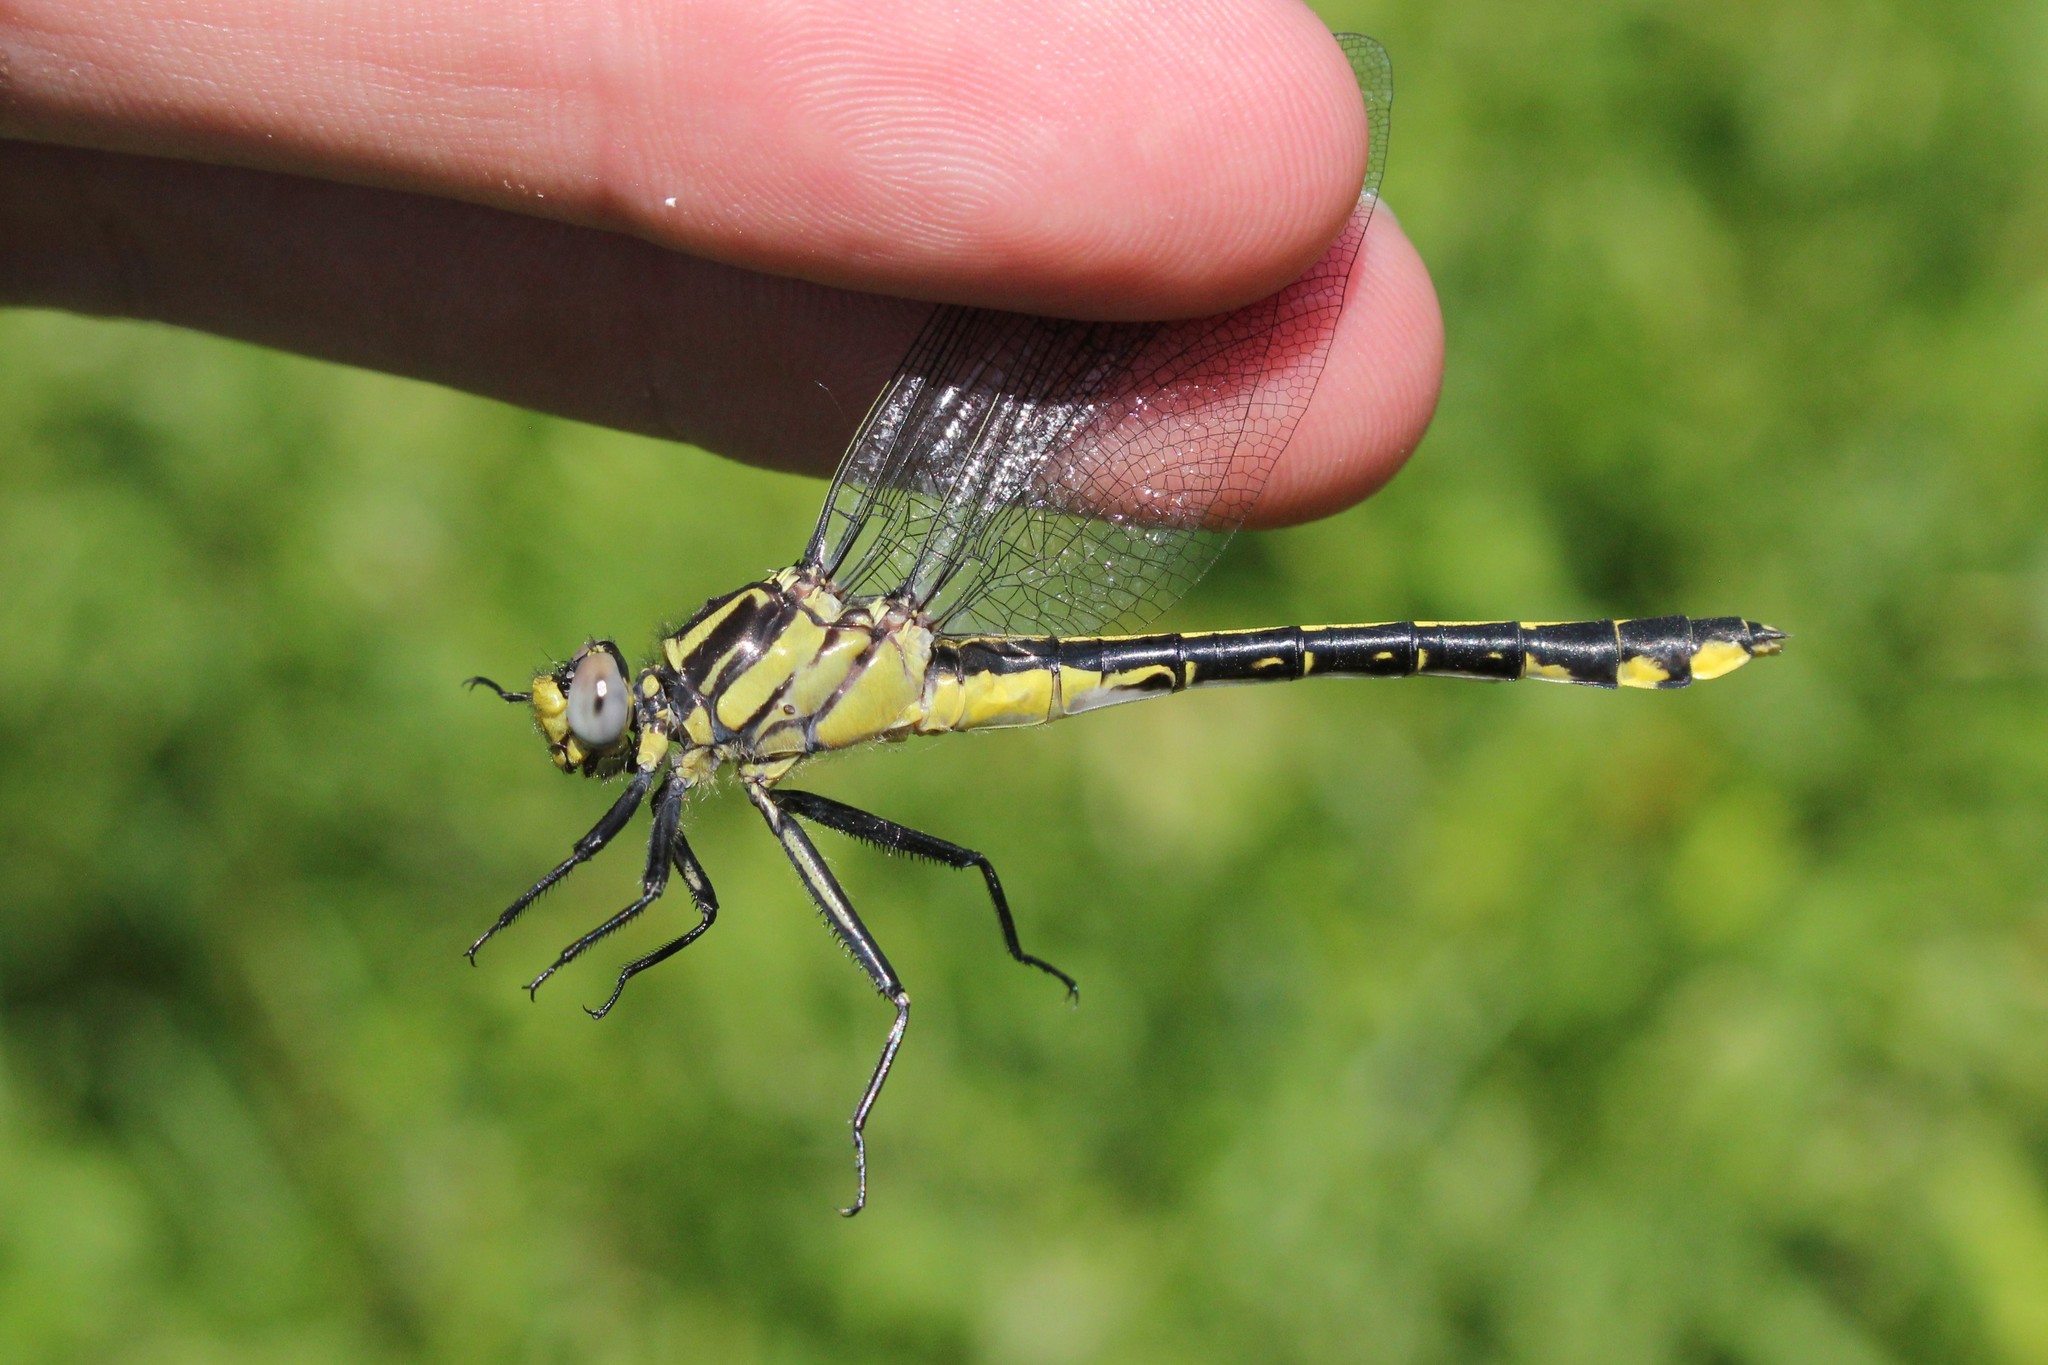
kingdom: Animalia
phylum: Arthropoda
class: Insecta
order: Odonata
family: Gomphidae
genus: Gomphurus
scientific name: Gomphurus fraternus
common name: Midland clubtail
